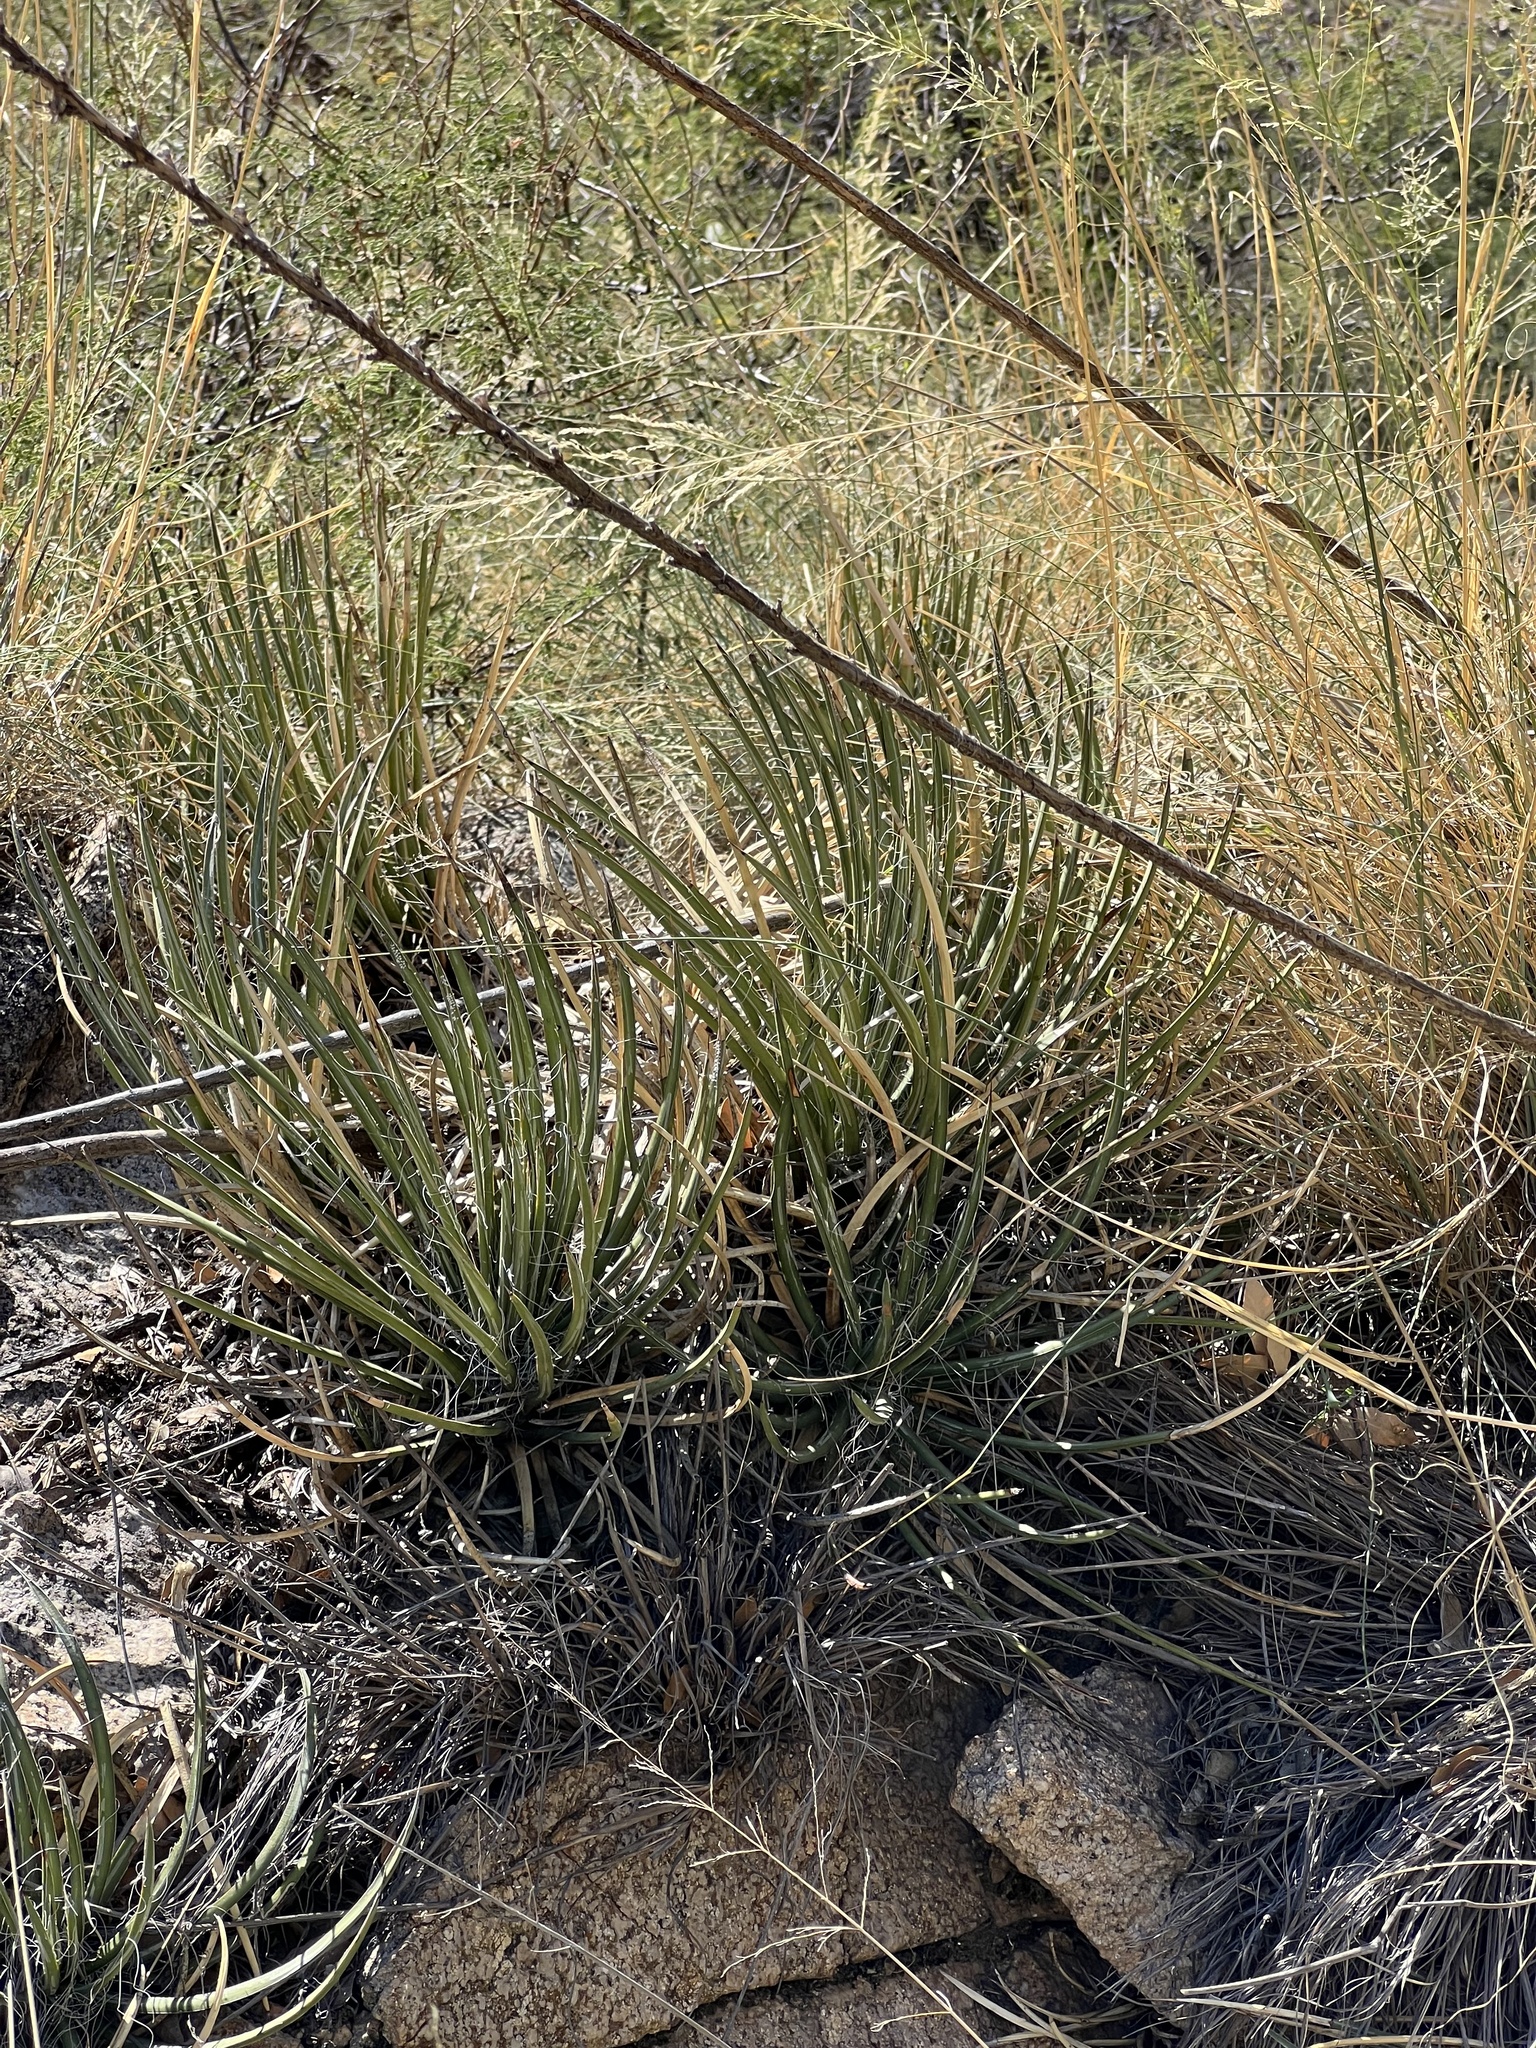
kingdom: Plantae
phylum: Tracheophyta
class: Liliopsida
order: Asparagales
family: Asparagaceae
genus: Agave
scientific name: Agave schottii
